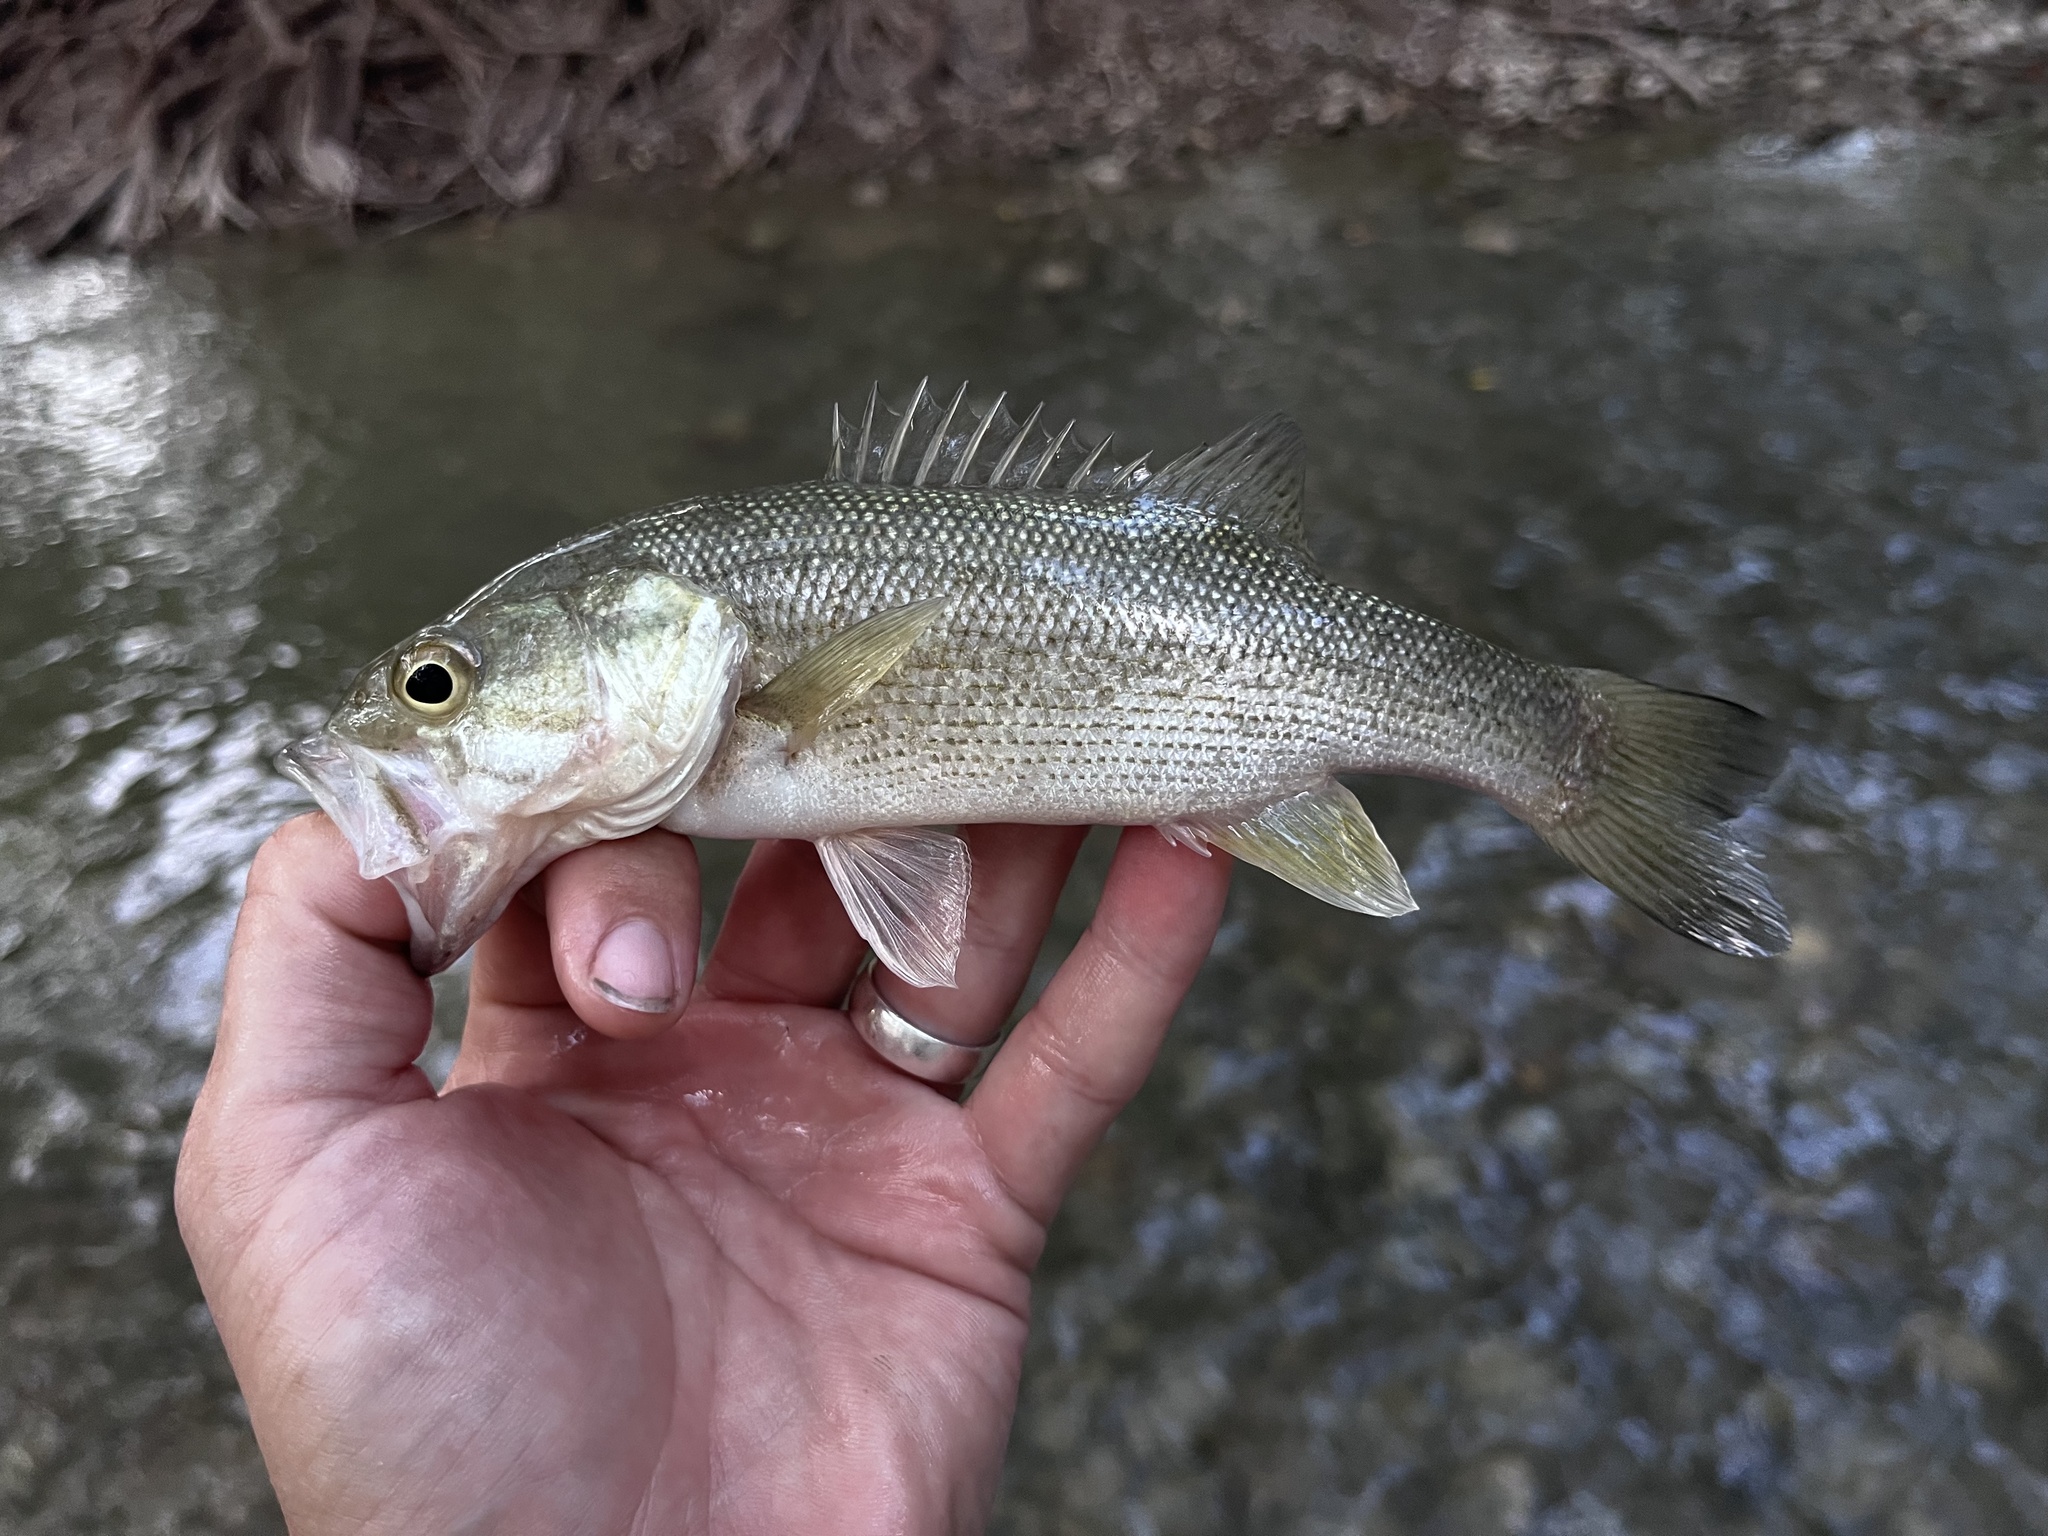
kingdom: Animalia
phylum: Chordata
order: Perciformes
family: Centrarchidae
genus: Micropterus
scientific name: Micropterus treculii
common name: Guadalupe bass
